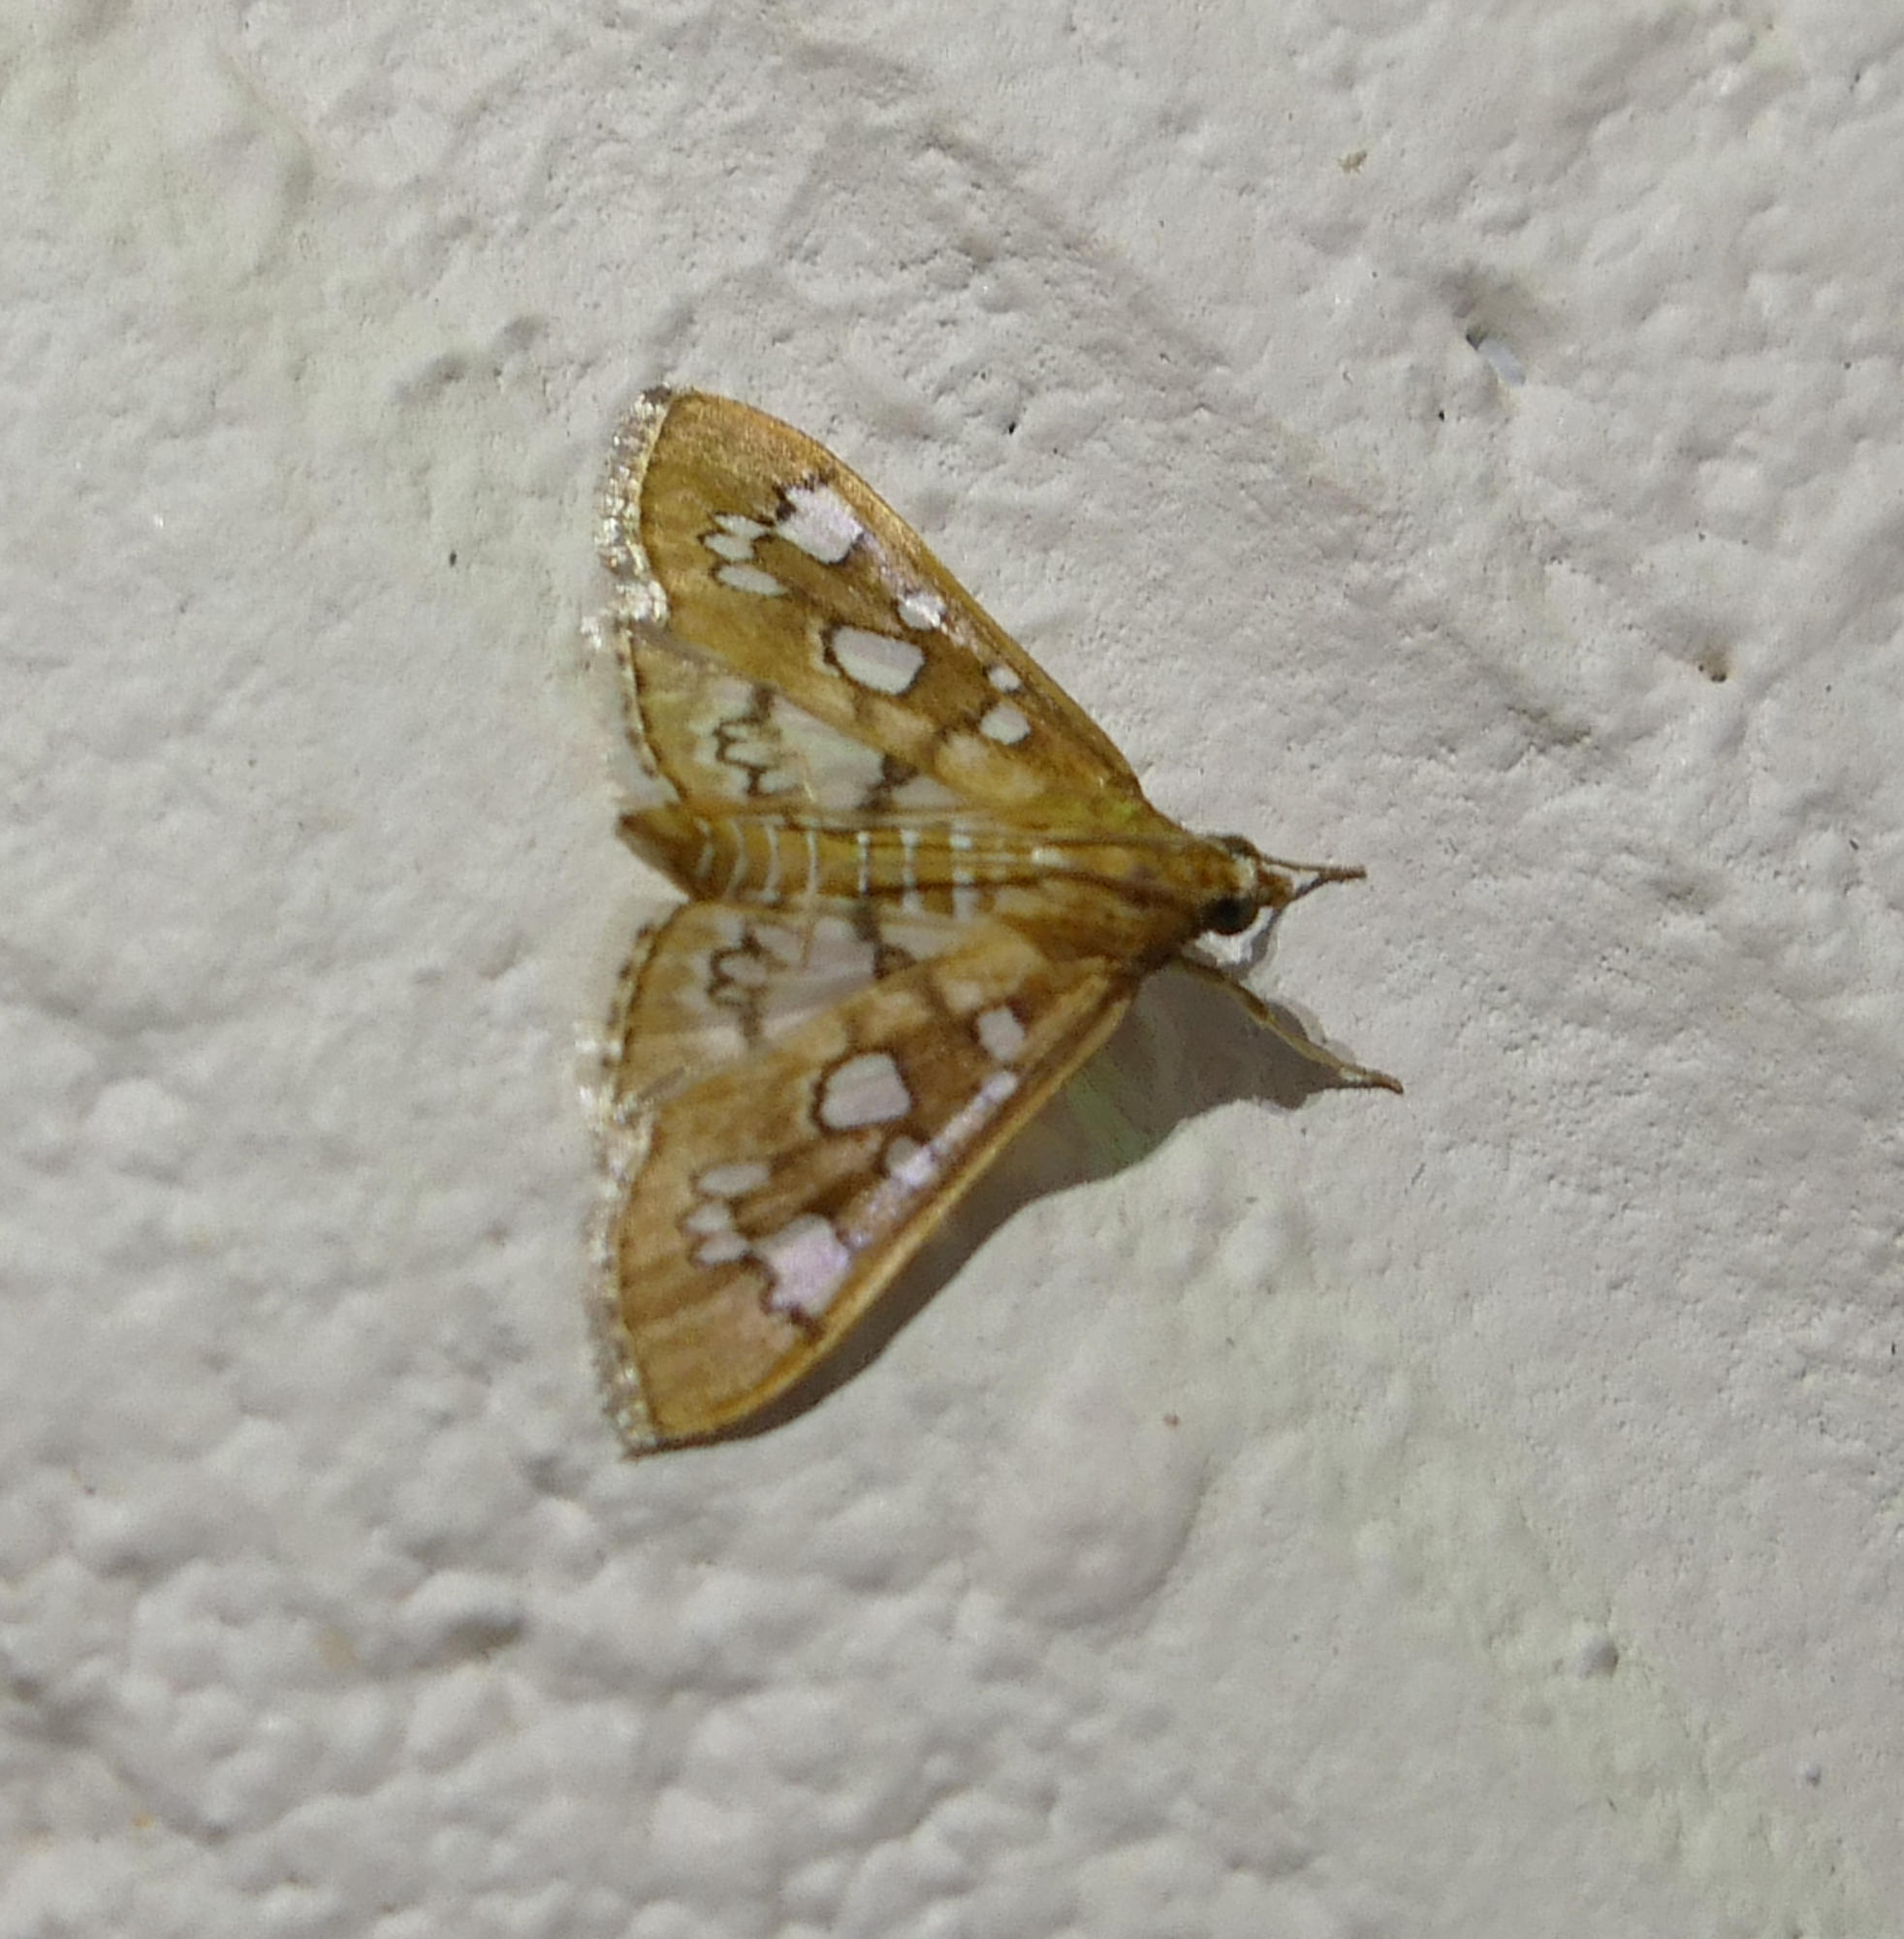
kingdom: Animalia
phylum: Arthropoda
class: Insecta
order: Lepidoptera
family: Crambidae
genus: Samea
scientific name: Samea baccatalis
